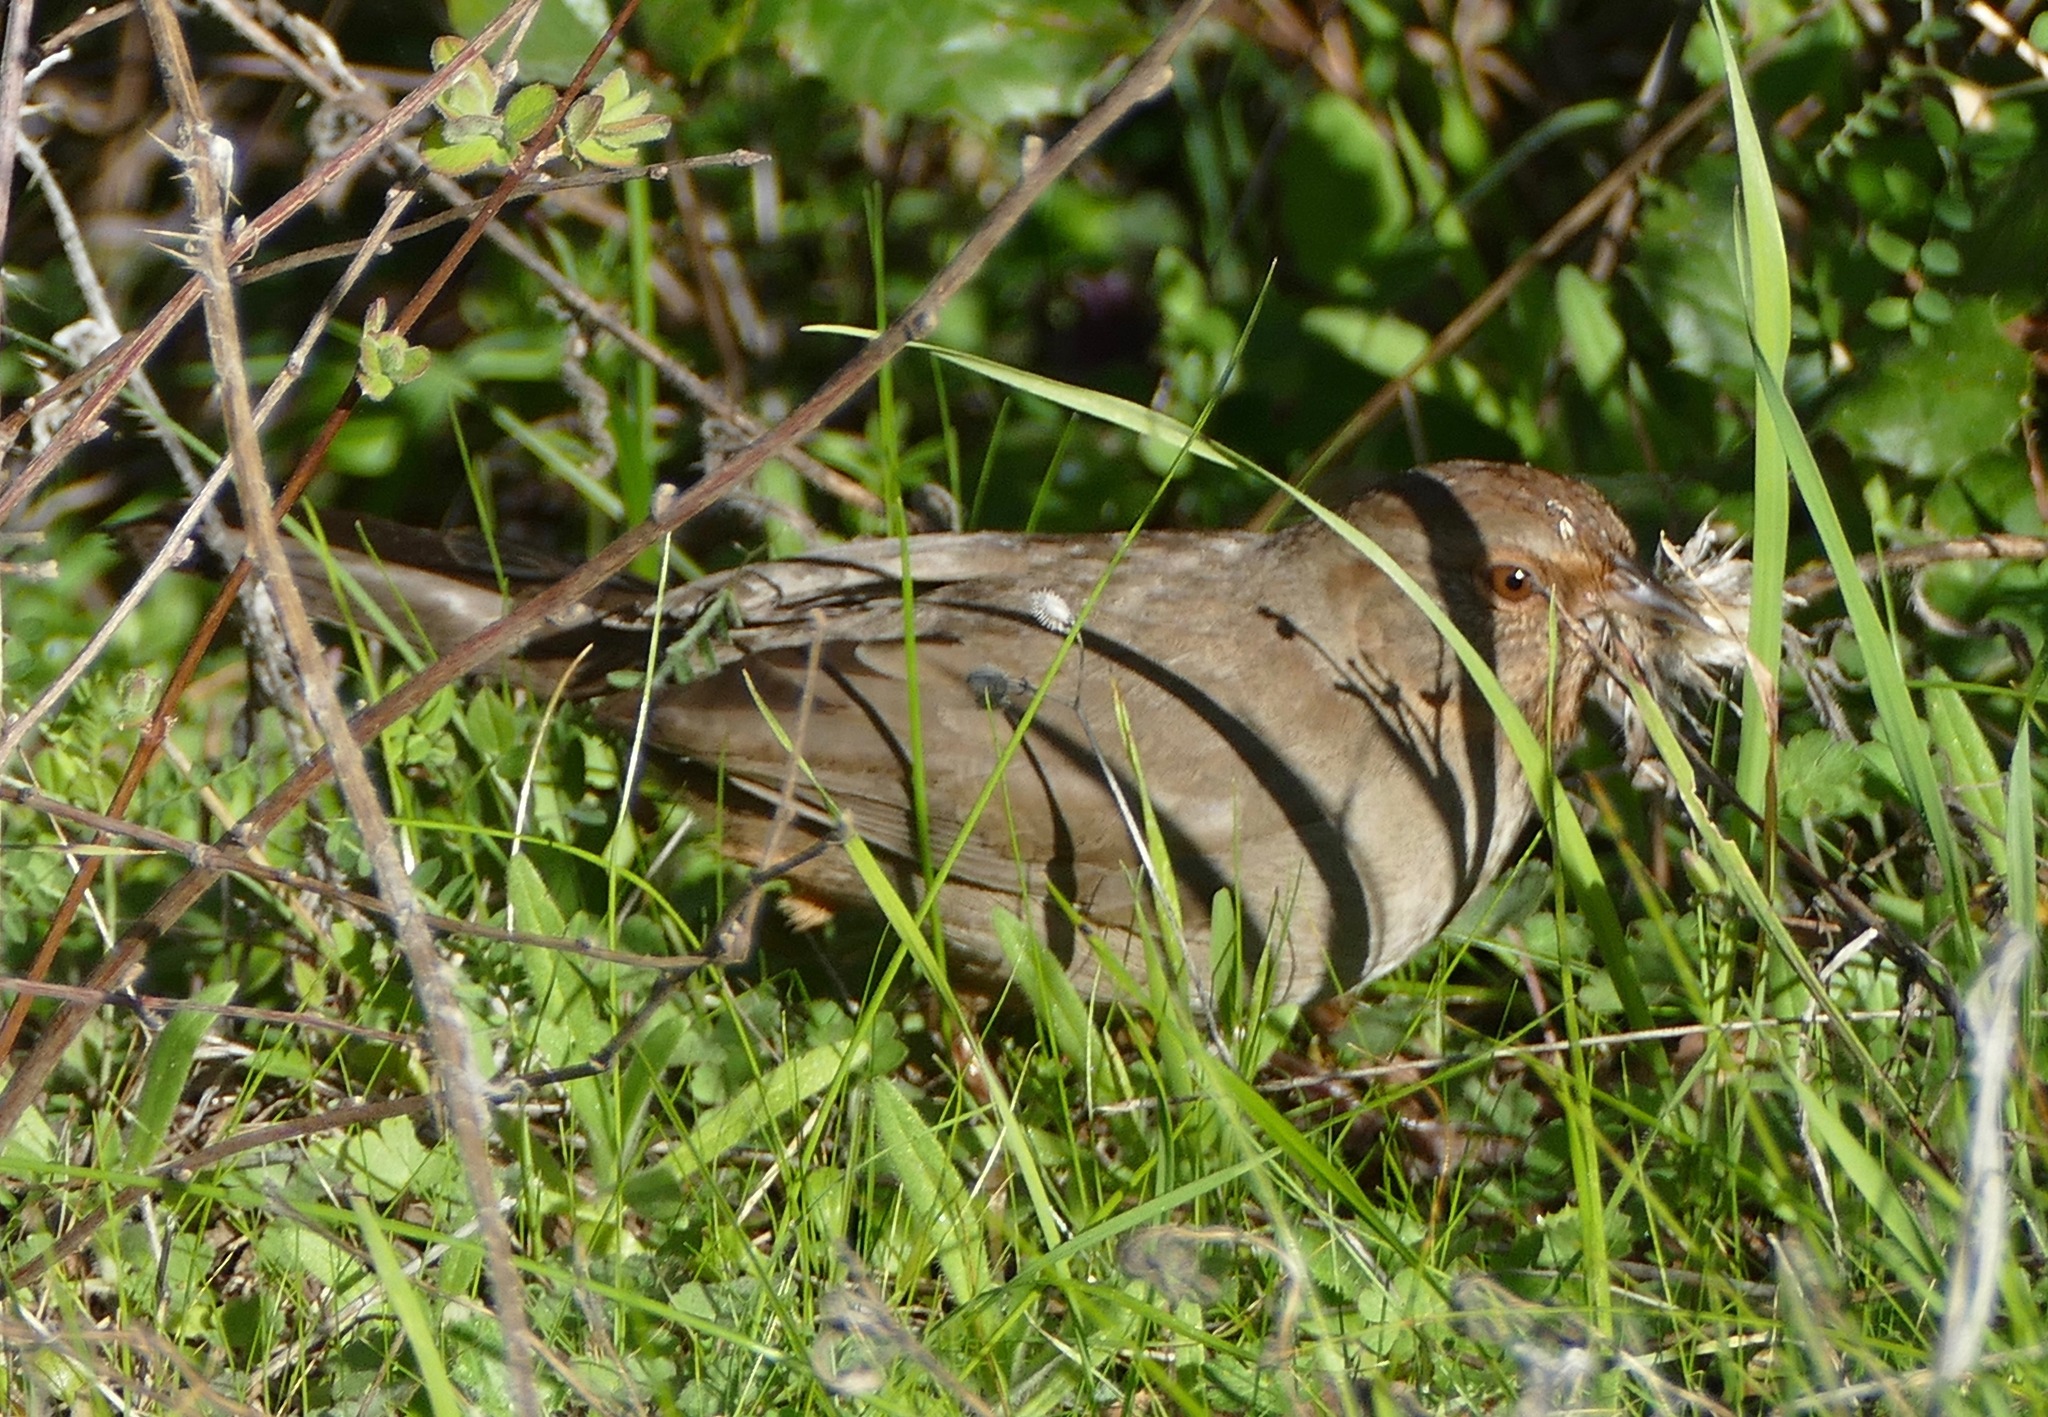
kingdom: Animalia
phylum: Chordata
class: Aves
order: Passeriformes
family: Passerellidae
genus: Melozone
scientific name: Melozone crissalis
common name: California towhee
